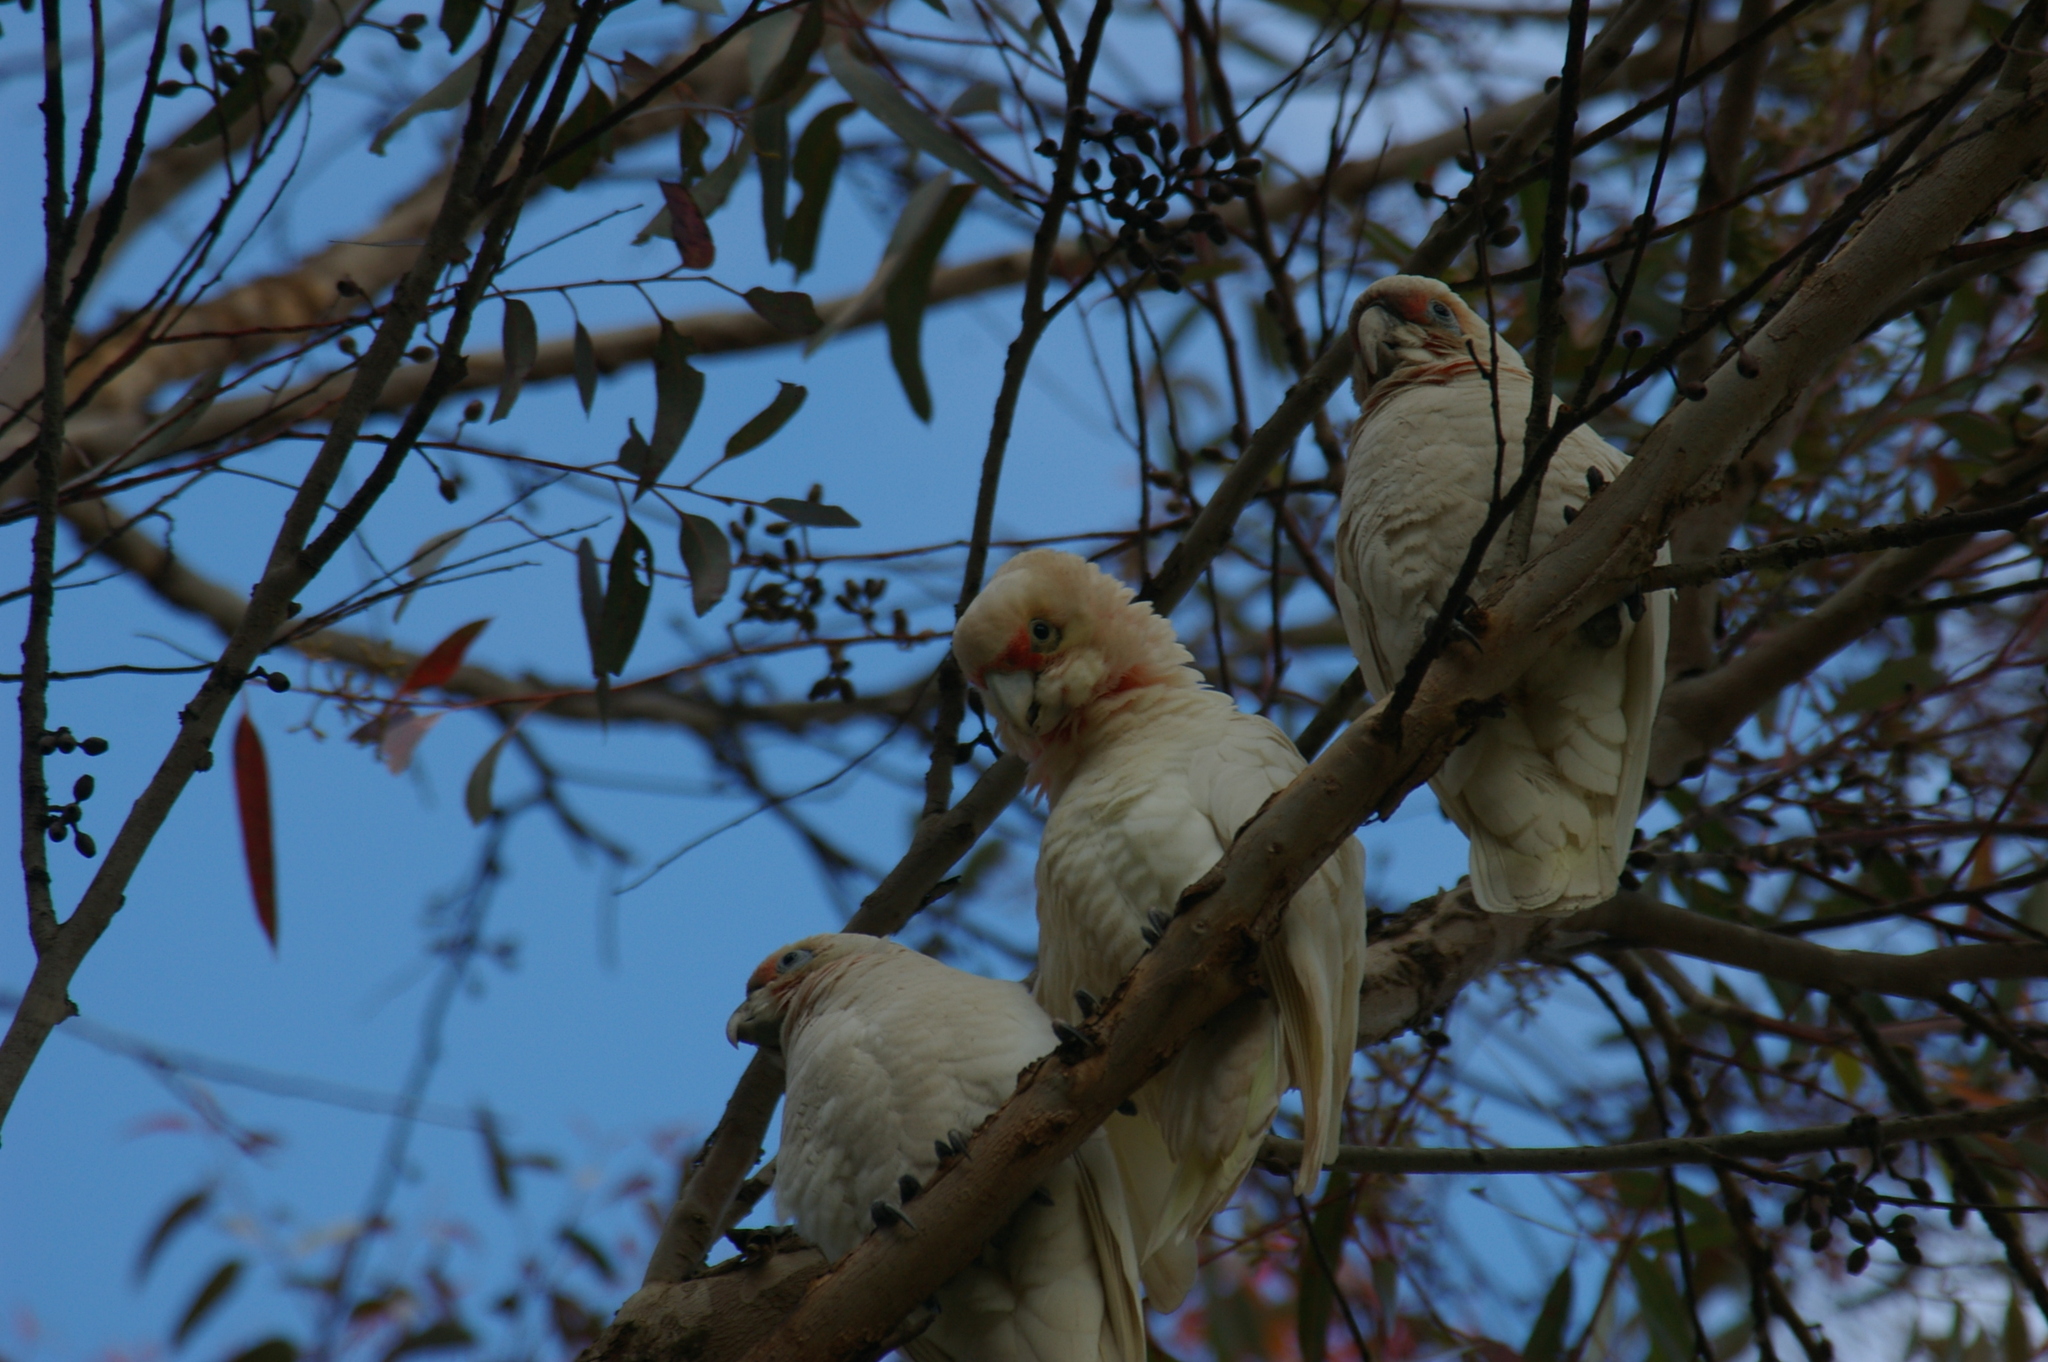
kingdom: Animalia
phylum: Chordata
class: Aves
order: Psittaciformes
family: Psittacidae
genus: Cacatua
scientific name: Cacatua tenuirostris
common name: Long-billed corella
